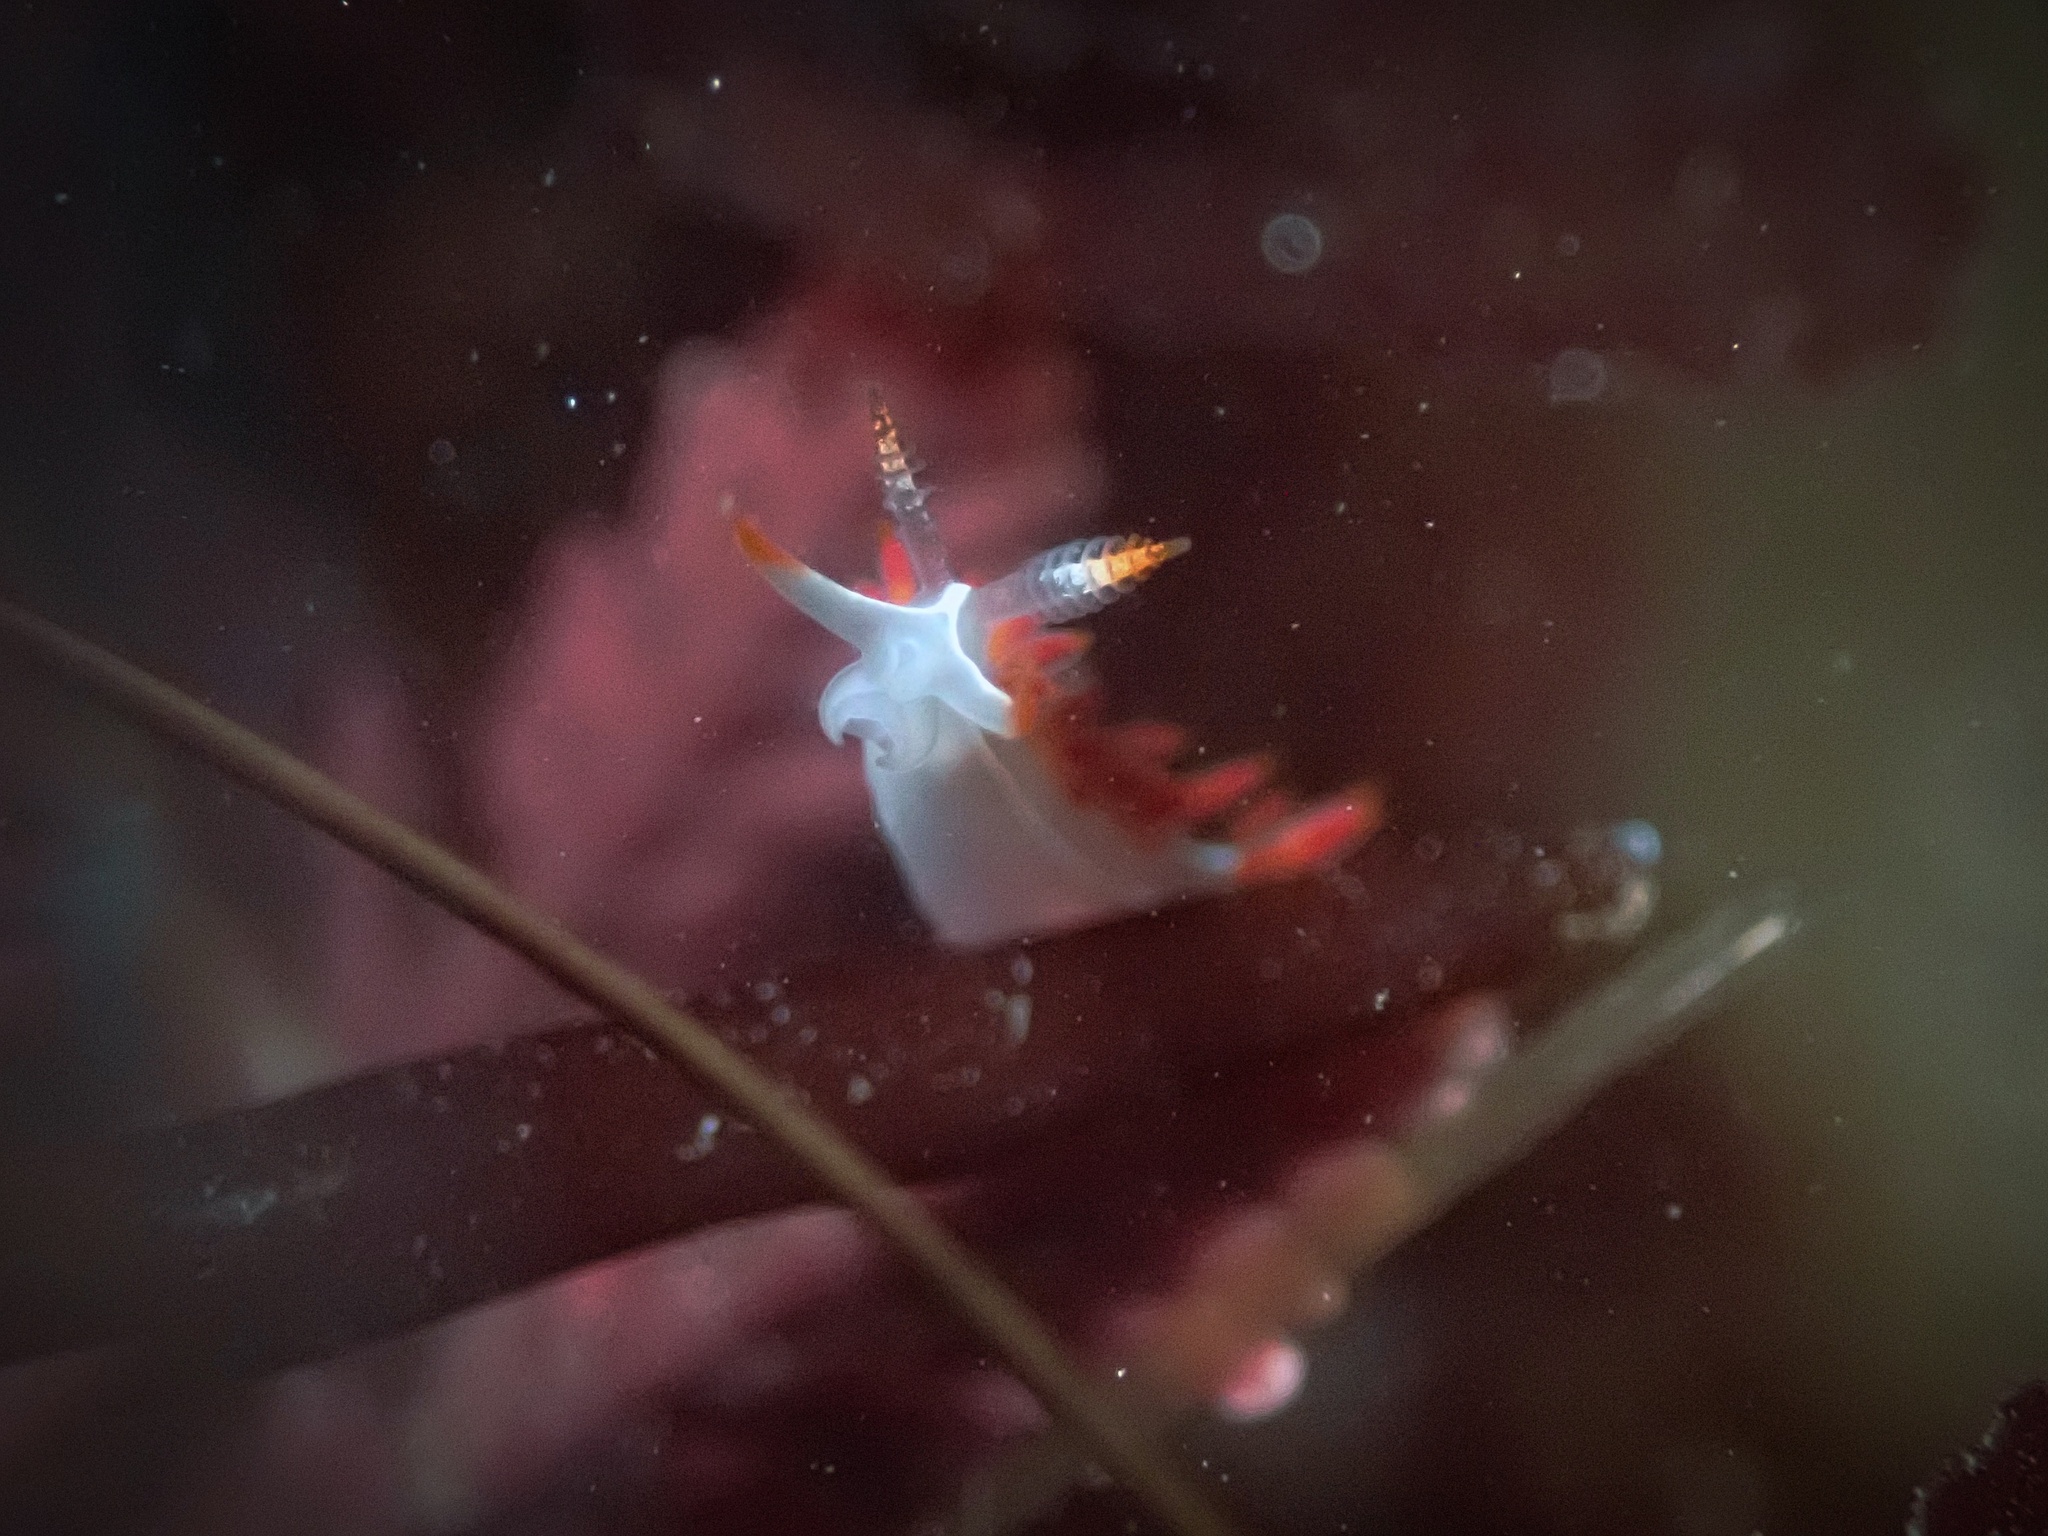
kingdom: Animalia
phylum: Mollusca
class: Gastropoda
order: Nudibranchia
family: Coryphellidae
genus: Coryphella
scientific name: Coryphella trilineata
